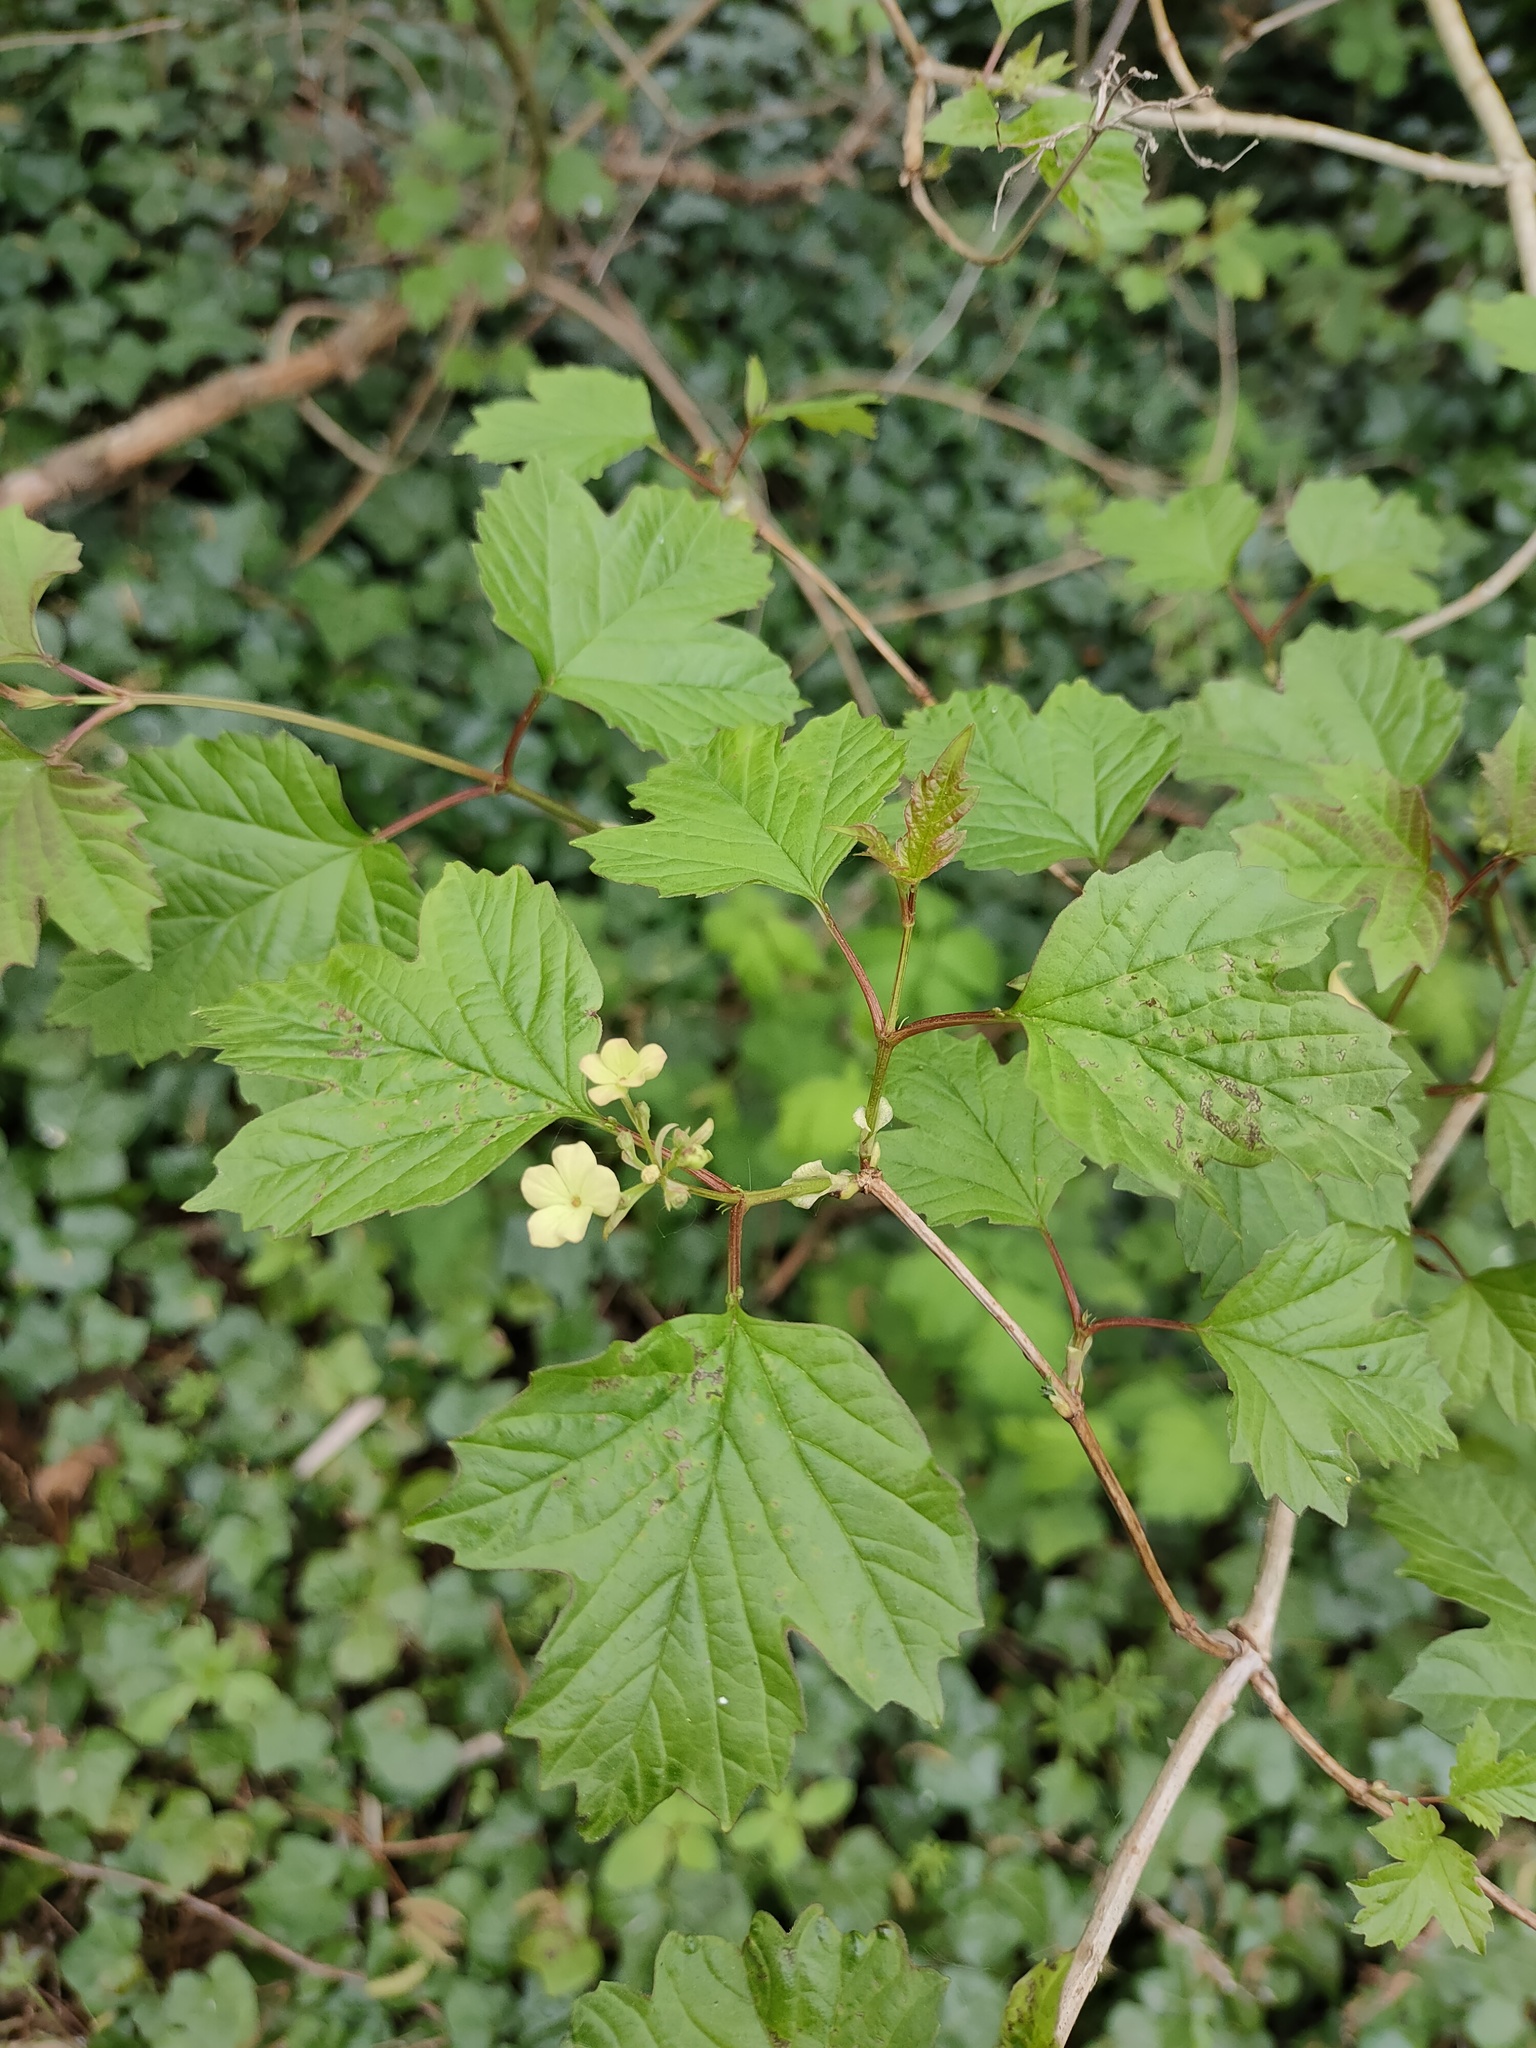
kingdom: Plantae
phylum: Tracheophyta
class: Magnoliopsida
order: Dipsacales
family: Viburnaceae
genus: Viburnum
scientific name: Viburnum opulus
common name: Guelder-rose
